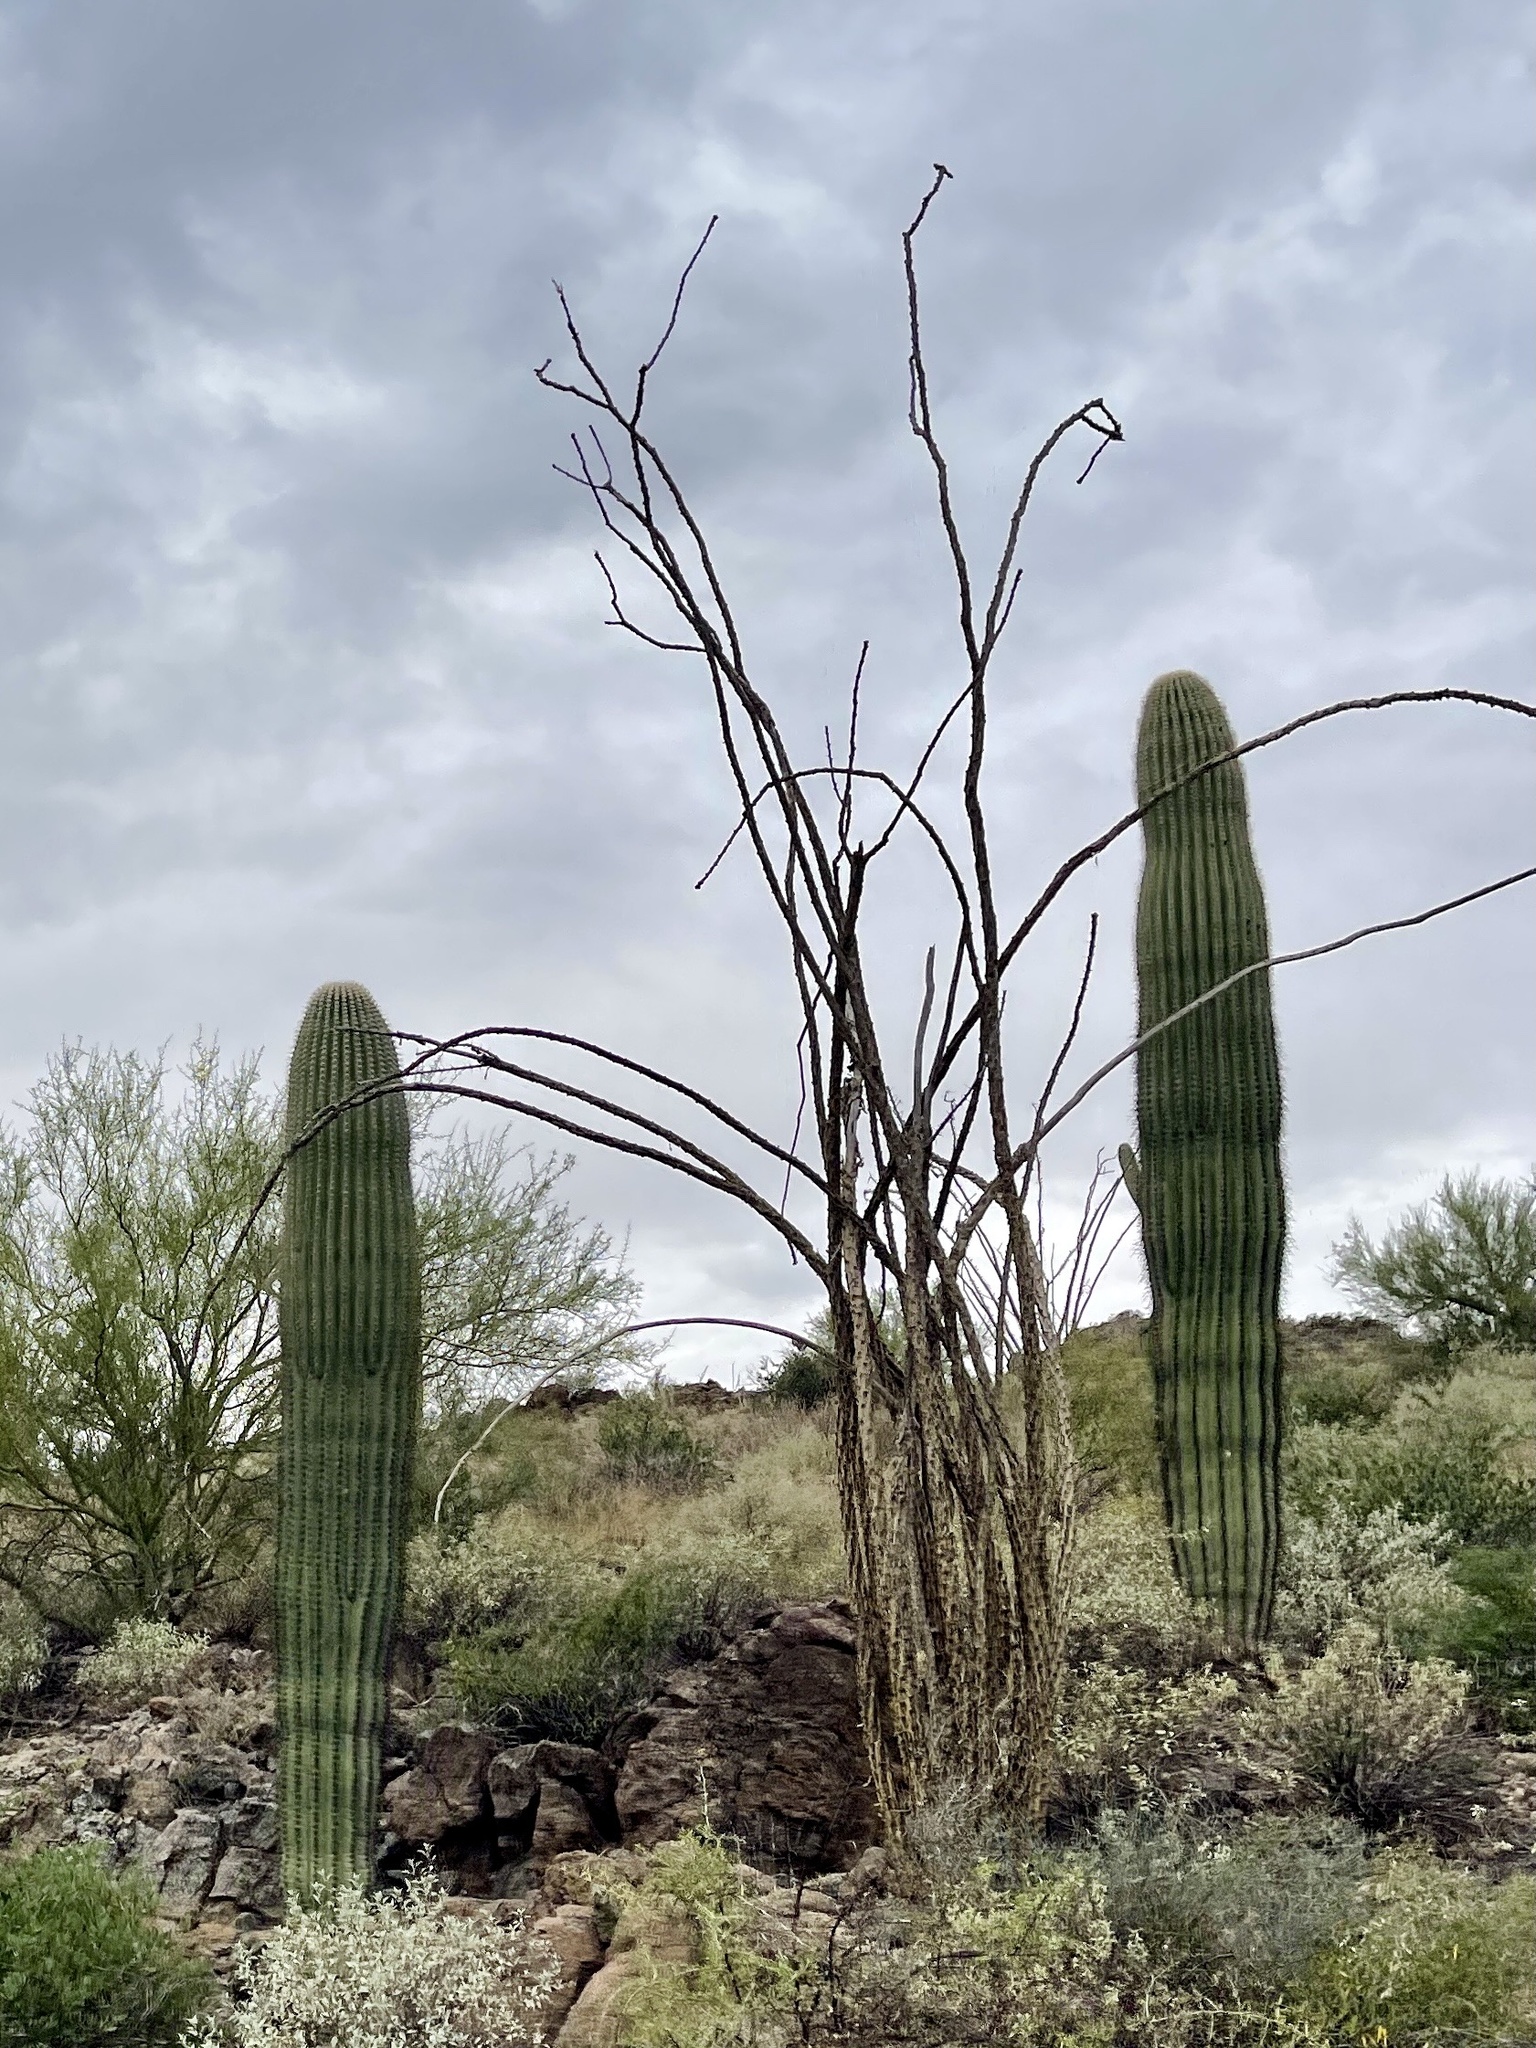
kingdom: Plantae
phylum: Tracheophyta
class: Magnoliopsida
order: Ericales
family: Fouquieriaceae
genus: Fouquieria
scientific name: Fouquieria splendens
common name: Vine-cactus
